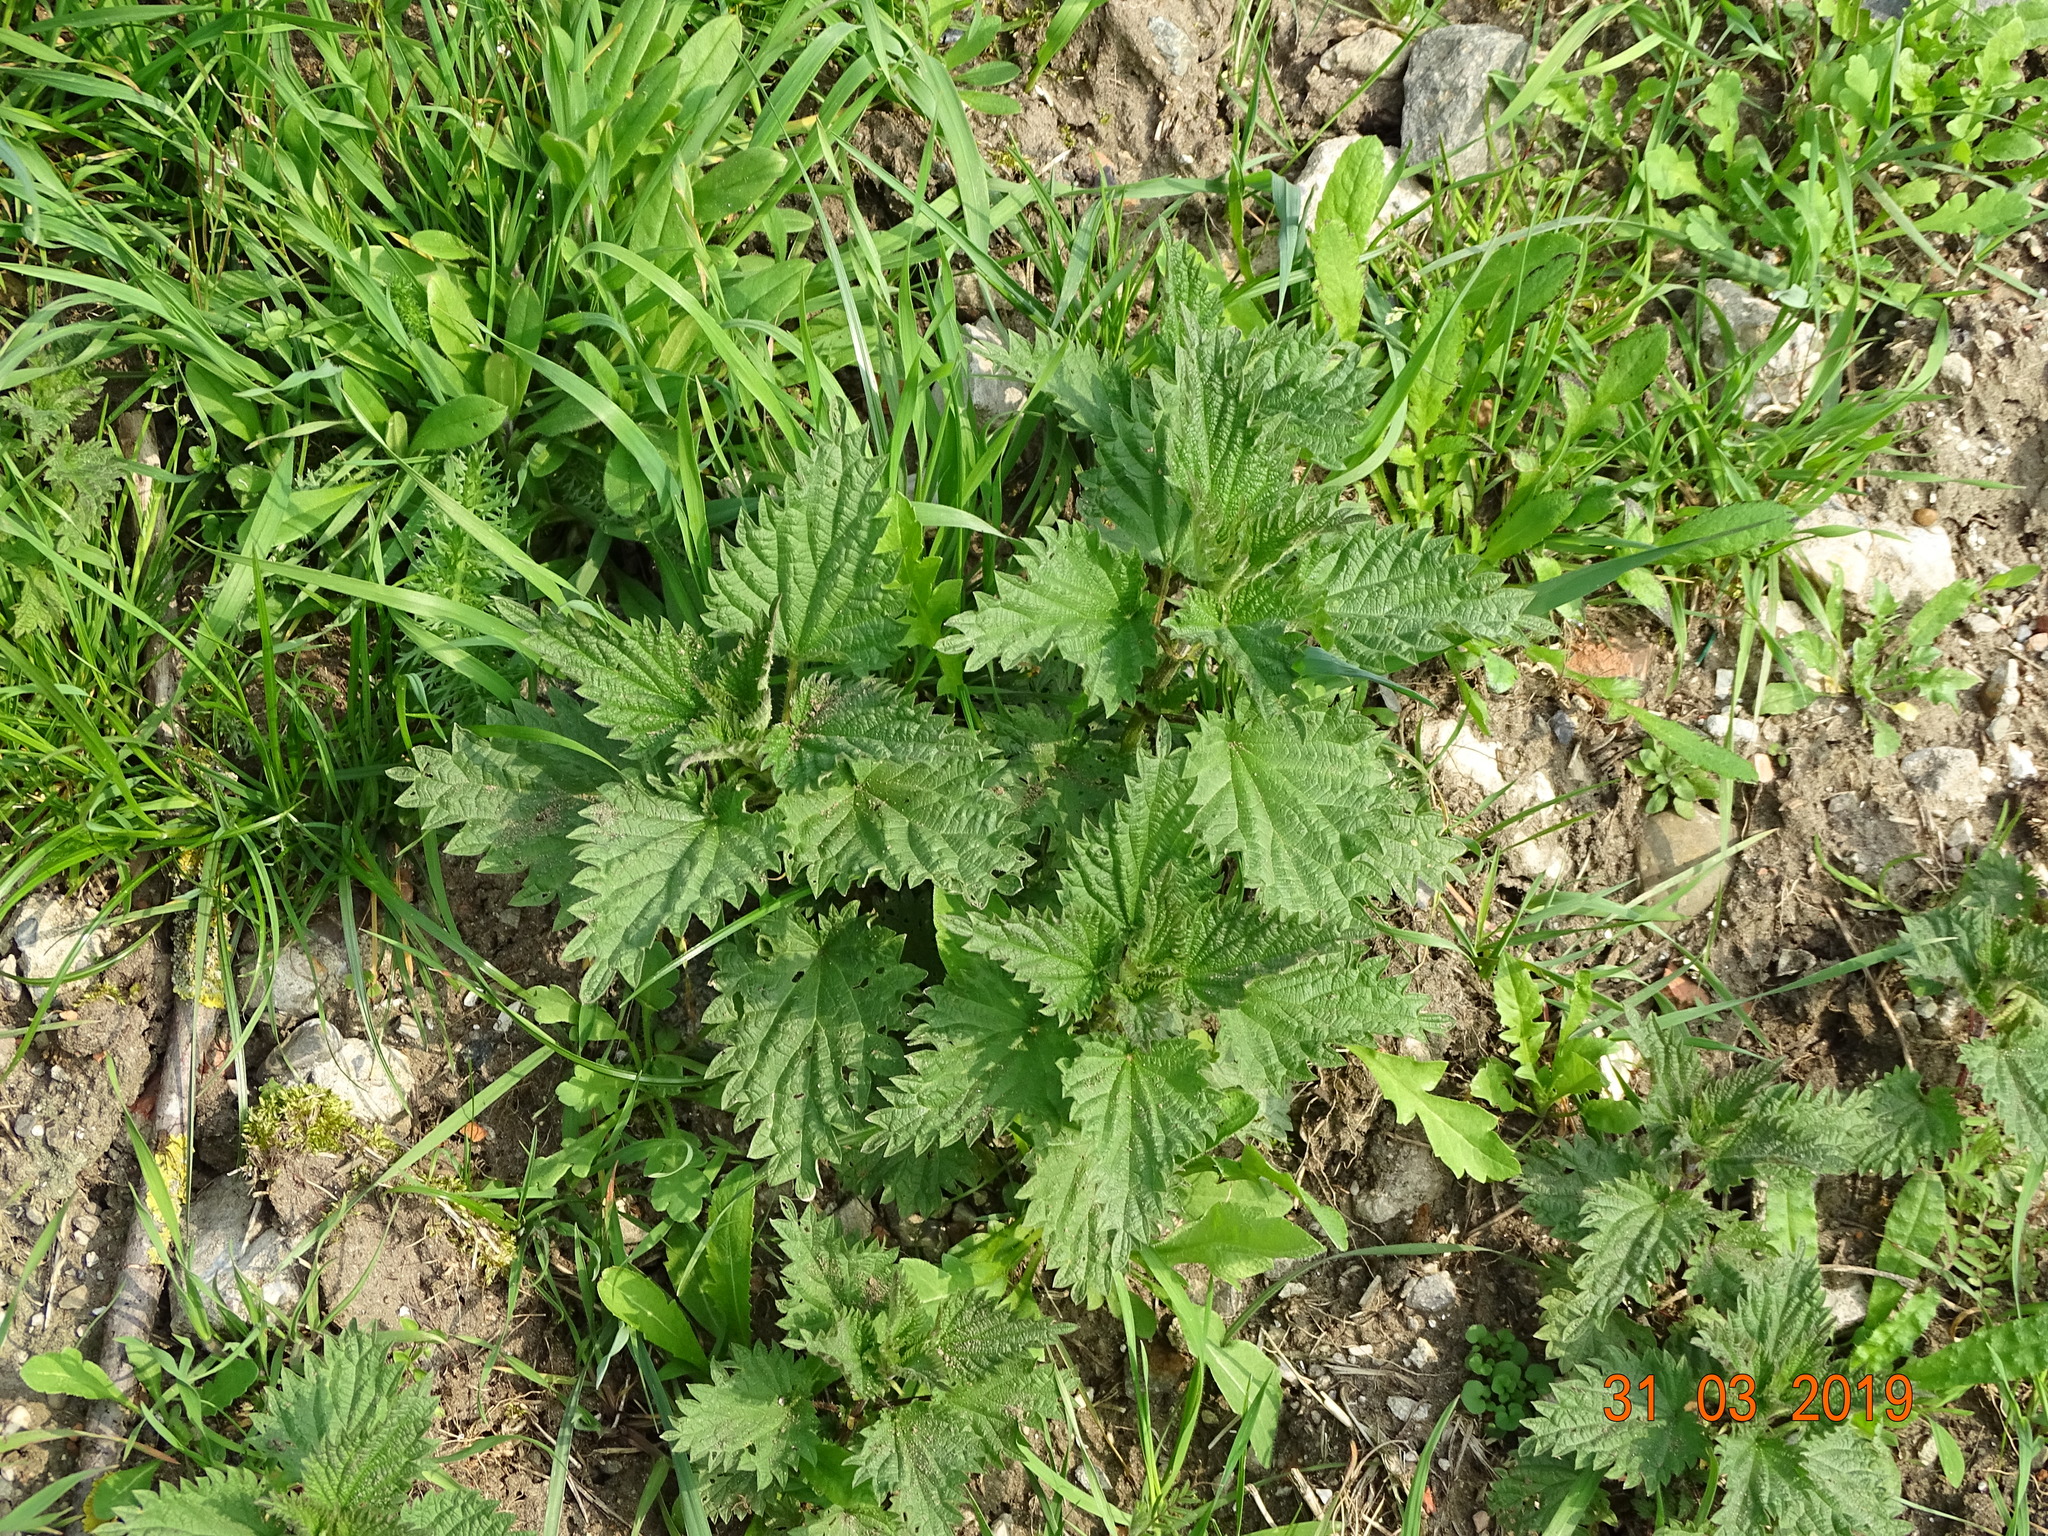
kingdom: Plantae
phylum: Tracheophyta
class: Magnoliopsida
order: Rosales
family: Urticaceae
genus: Urtica
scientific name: Urtica dioica
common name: Common nettle
